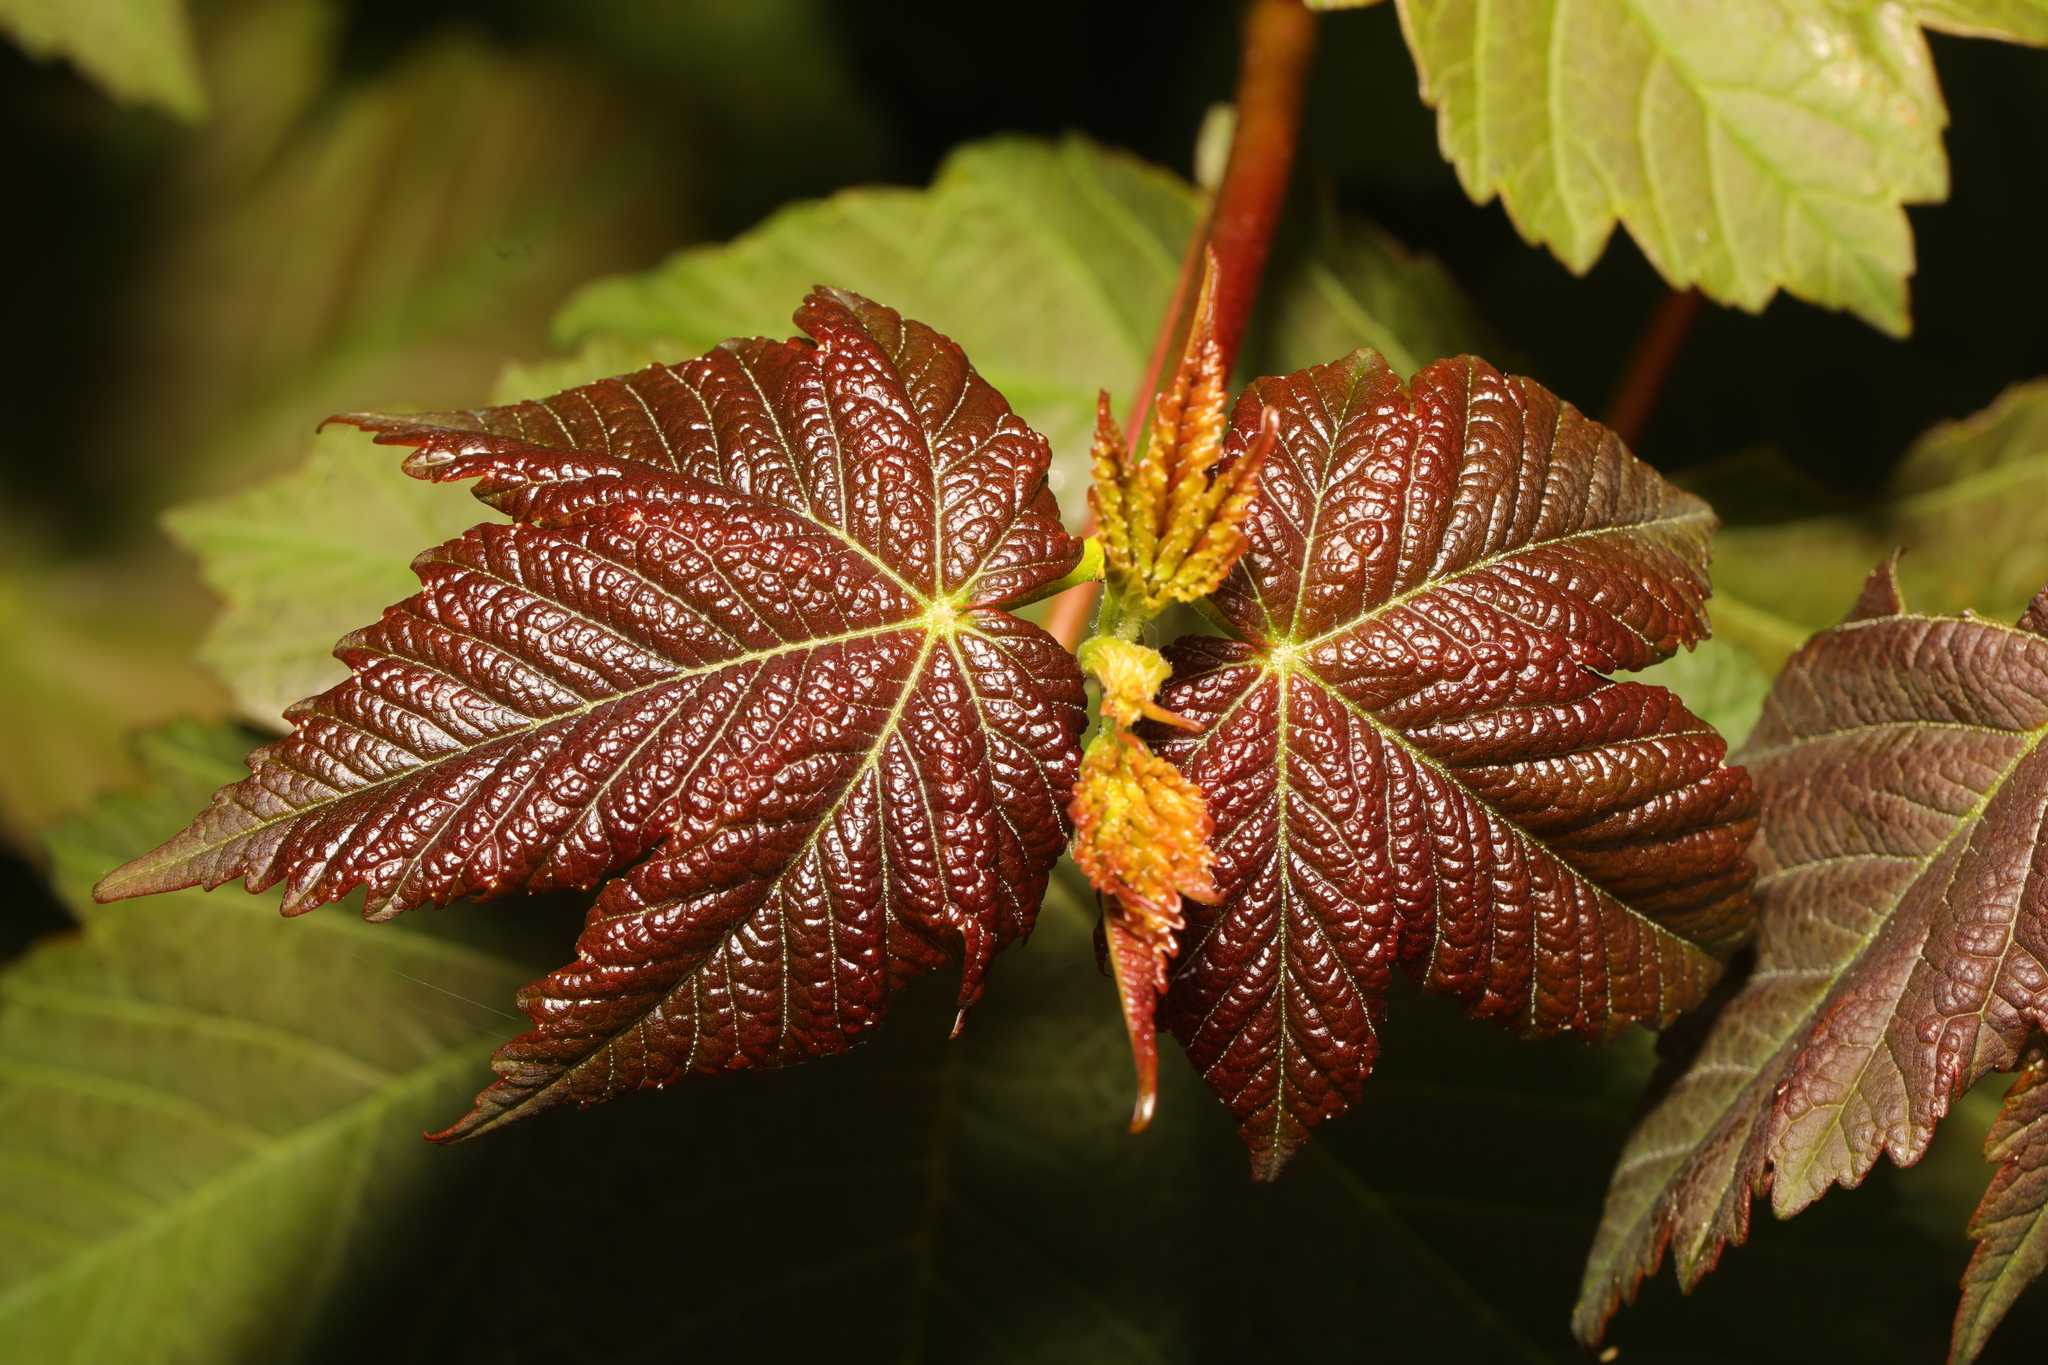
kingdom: Plantae
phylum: Tracheophyta
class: Magnoliopsida
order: Sapindales
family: Sapindaceae
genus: Acer
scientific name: Acer pseudoplatanus
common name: Sycamore
